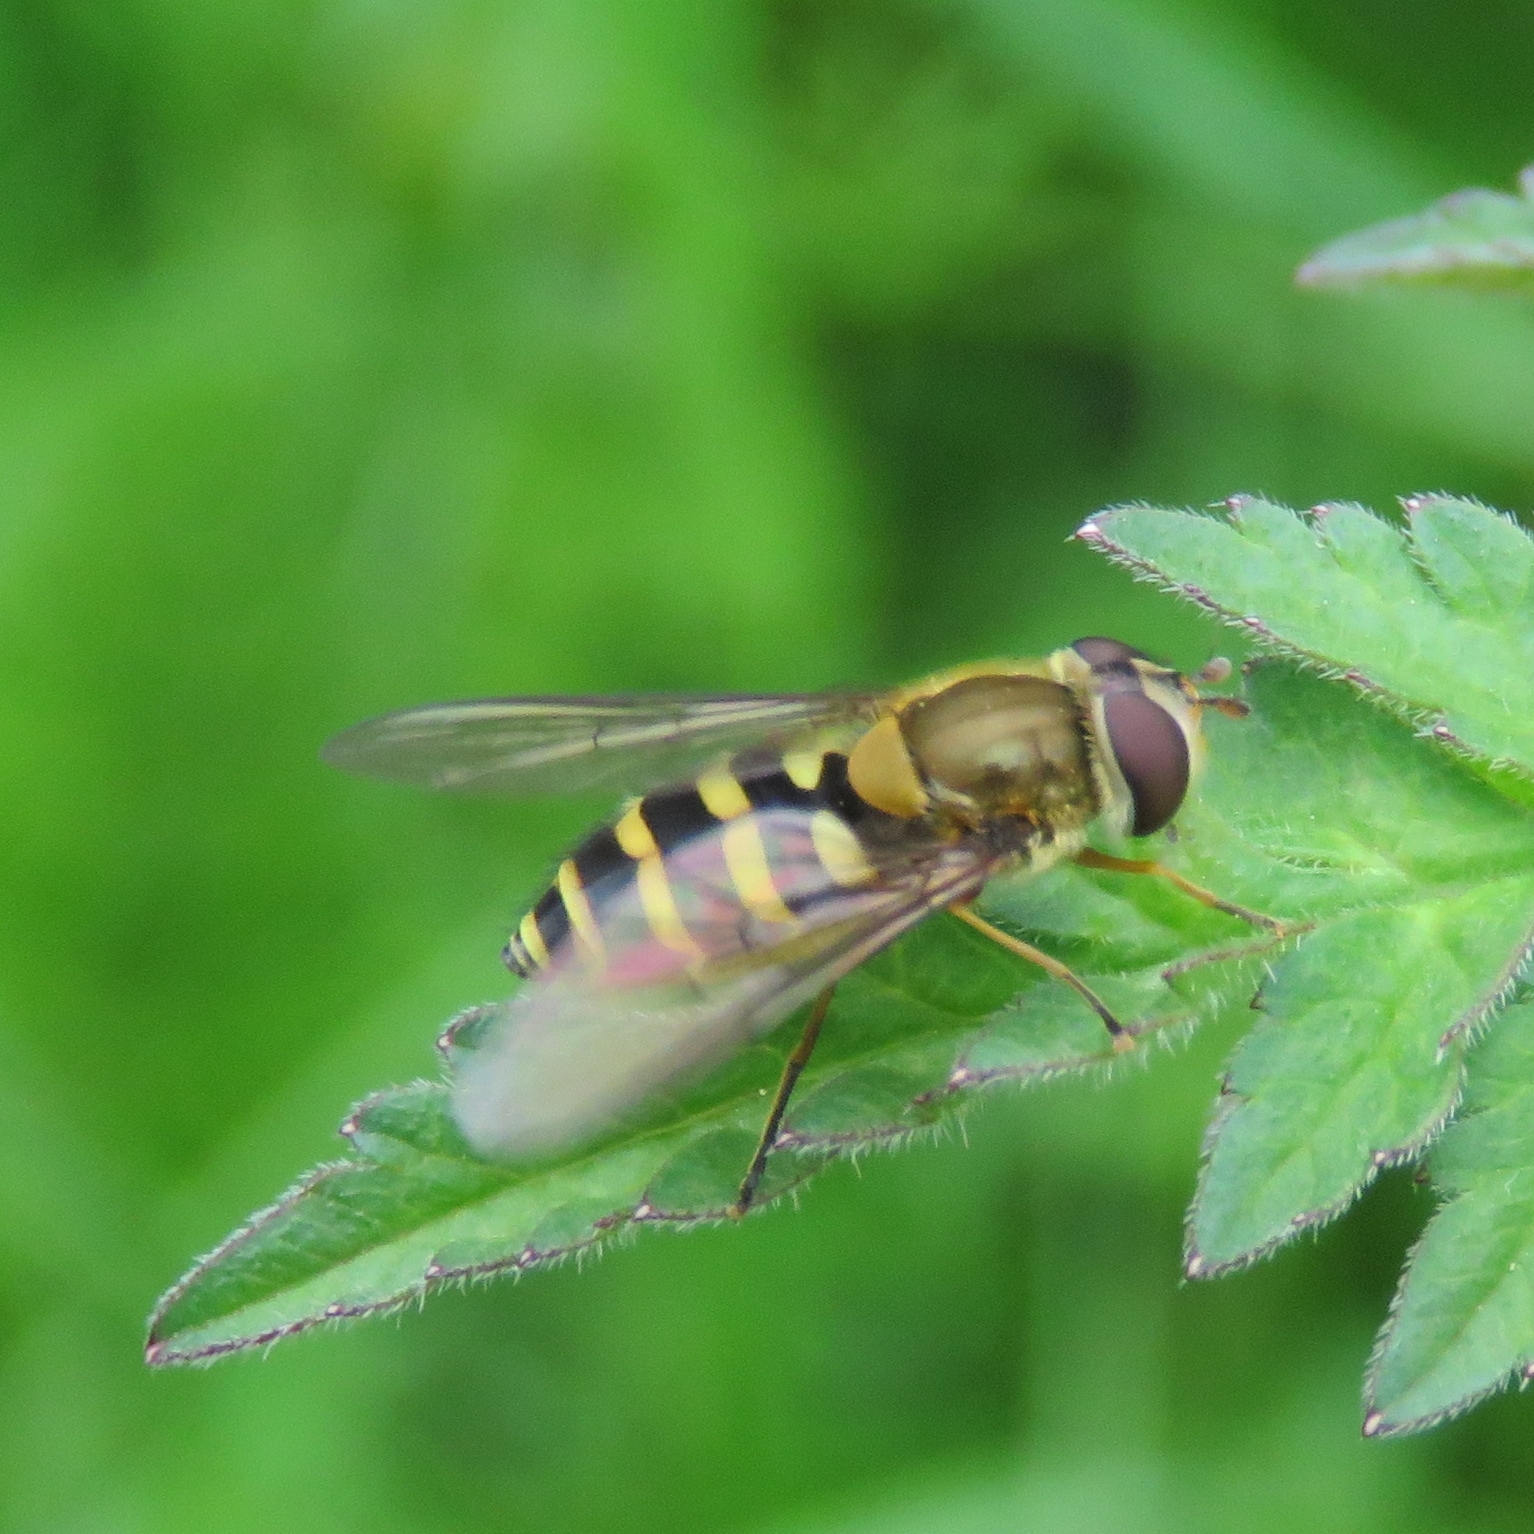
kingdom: Animalia
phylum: Arthropoda
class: Insecta
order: Diptera
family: Syrphidae
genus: Syrphus
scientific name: Syrphus
